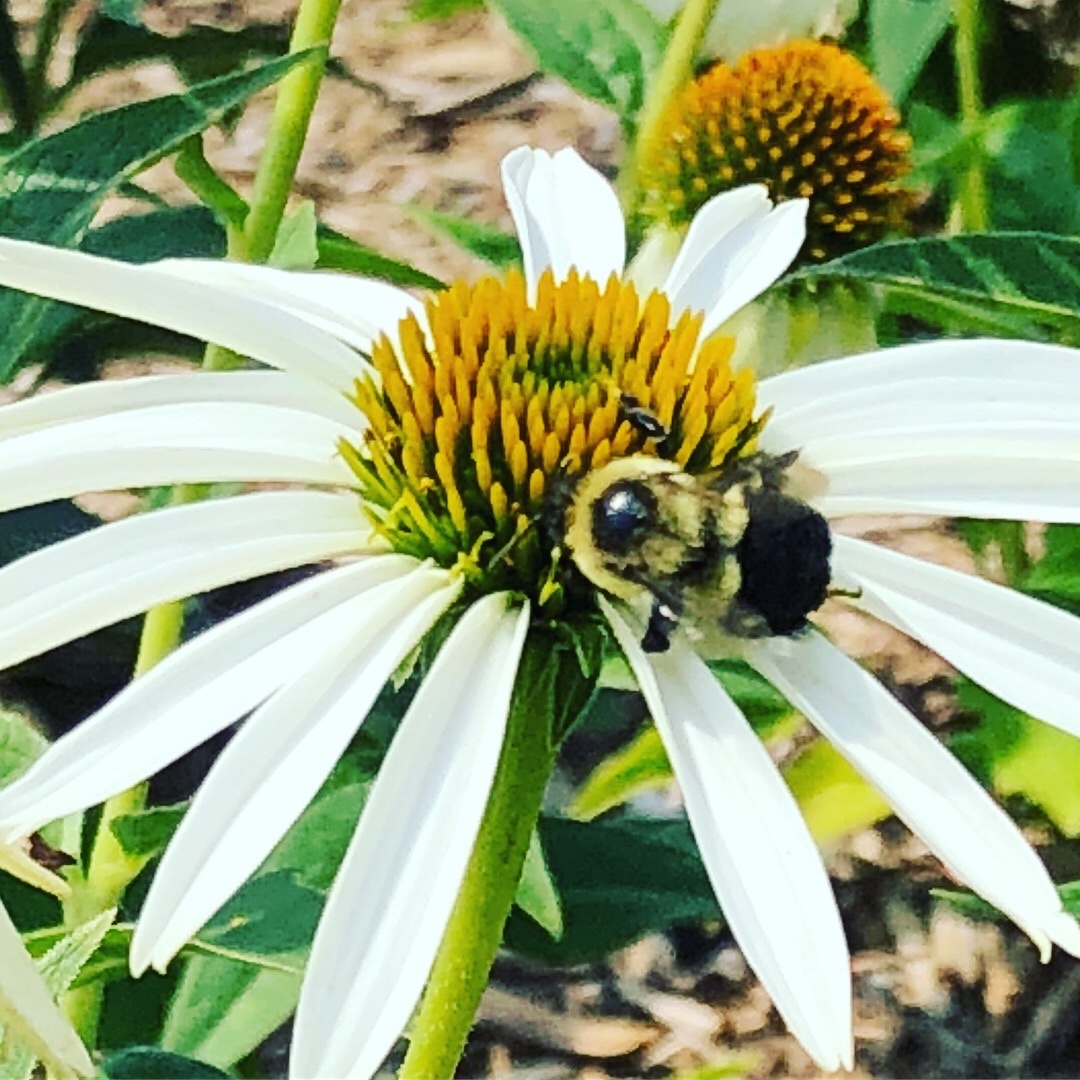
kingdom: Animalia
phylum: Arthropoda
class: Insecta
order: Hymenoptera
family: Apidae
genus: Bombus
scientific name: Bombus impatiens
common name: Common eastern bumble bee
